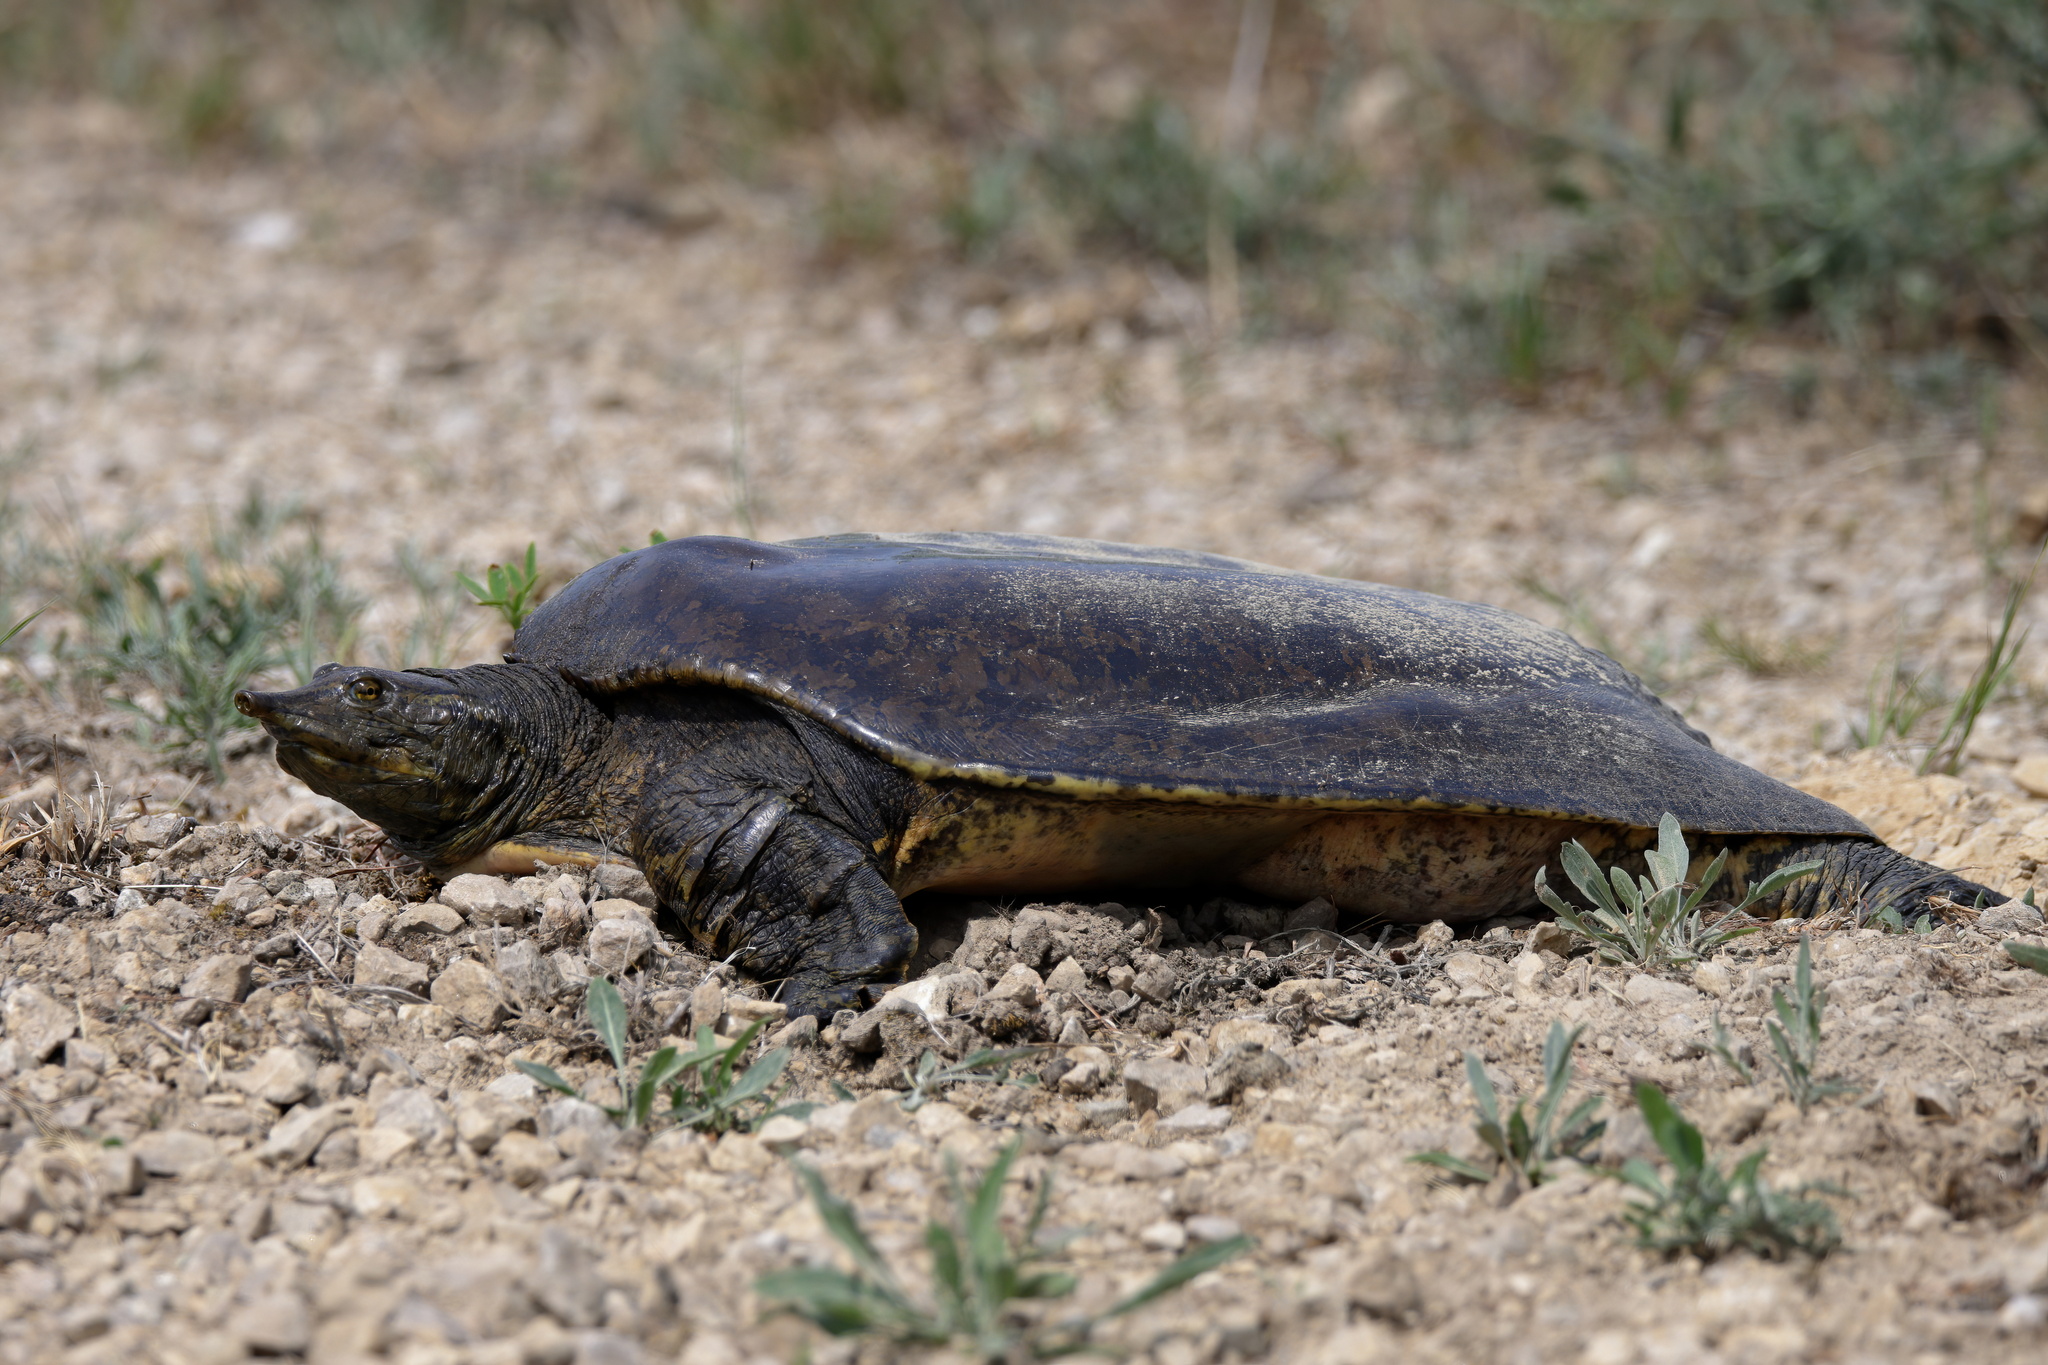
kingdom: Animalia
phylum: Chordata
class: Testudines
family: Trionychidae
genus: Apalone
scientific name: Apalone spinifera
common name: Spiny softshell turtle
